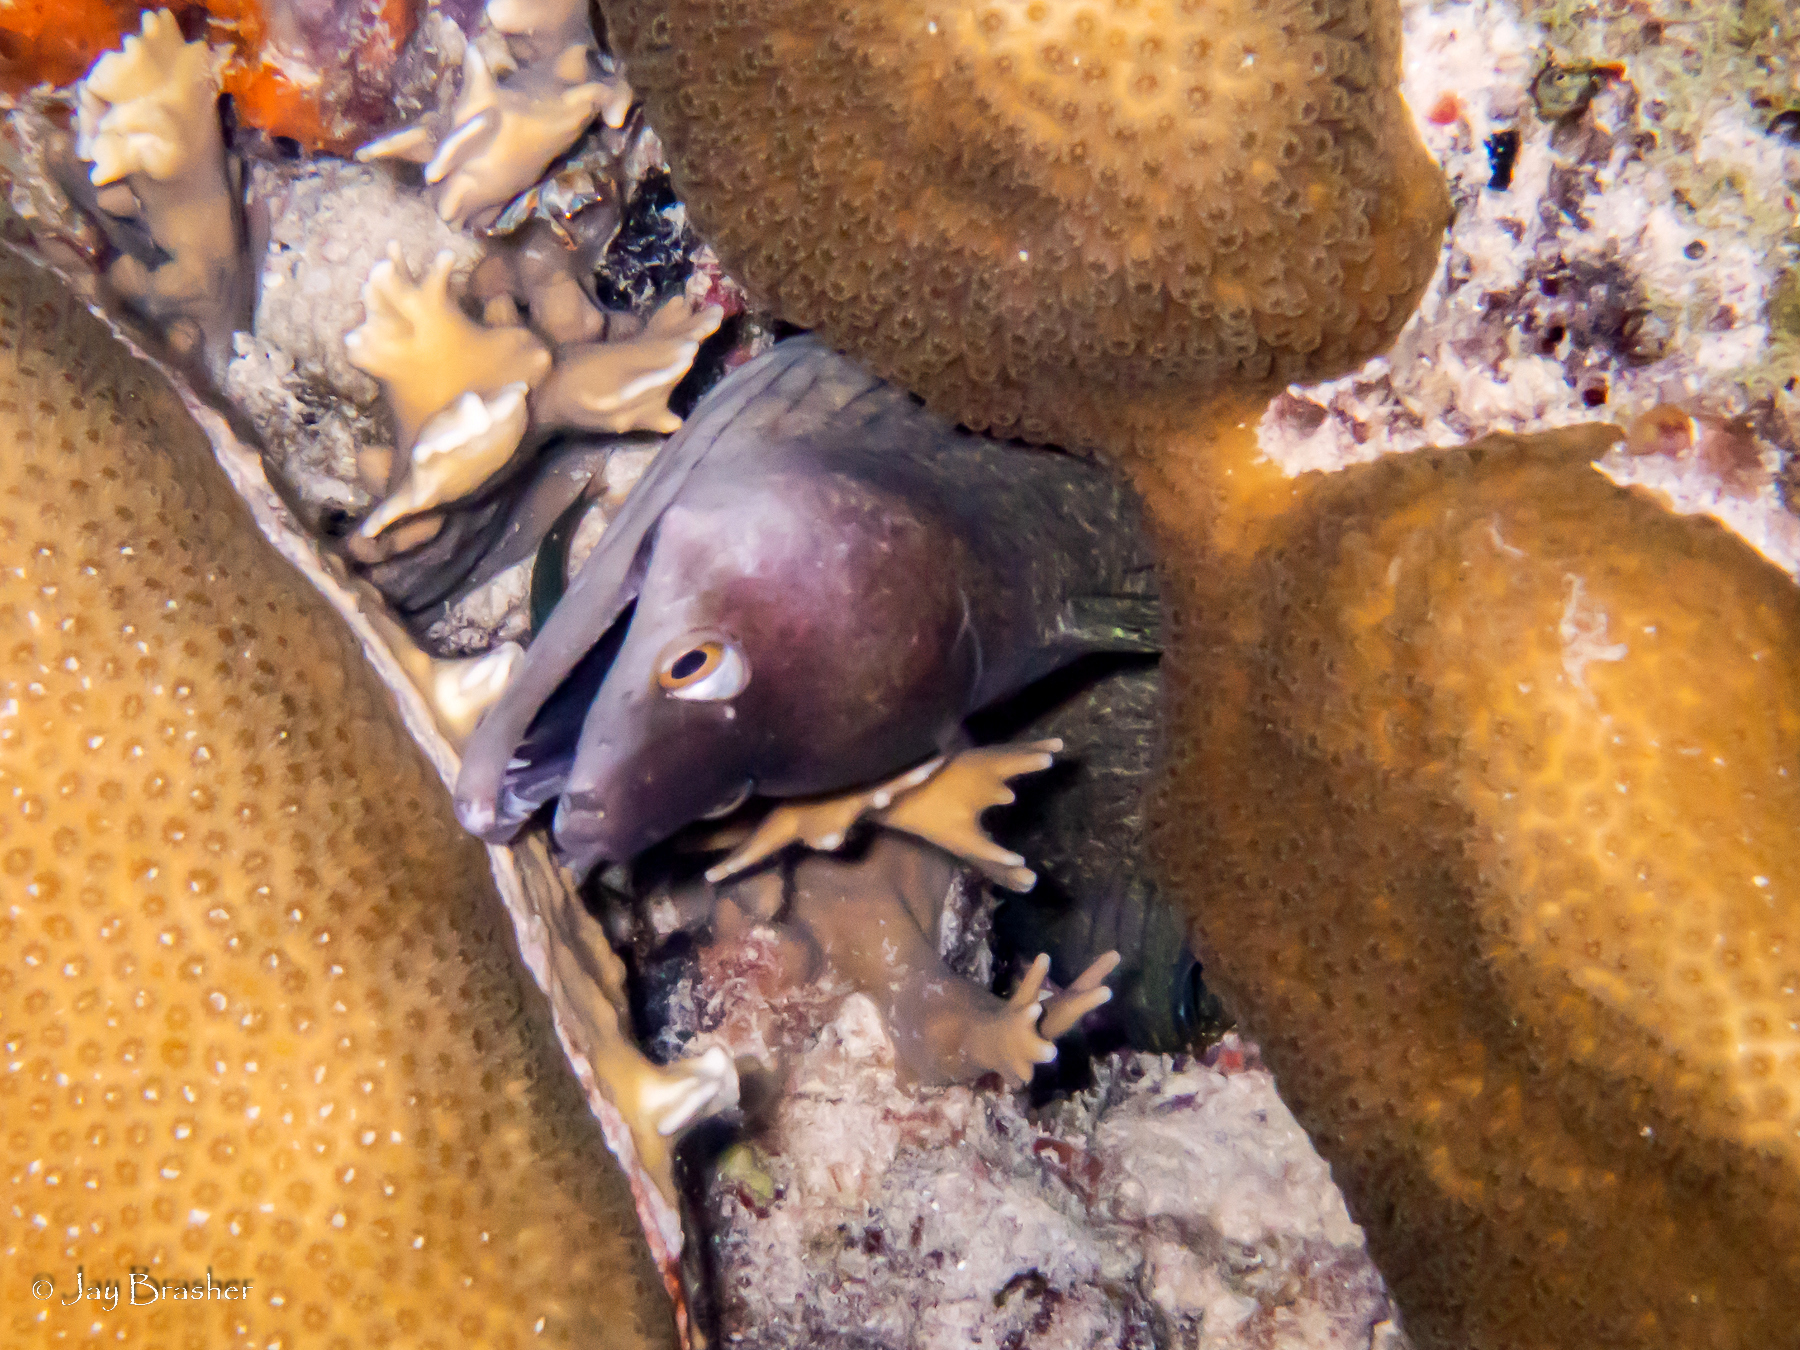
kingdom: Animalia
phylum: Cnidaria
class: Hydrozoa
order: Anthoathecata
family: Milleporidae
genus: Millepora
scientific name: Millepora alcicornis
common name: Branching fire coral
